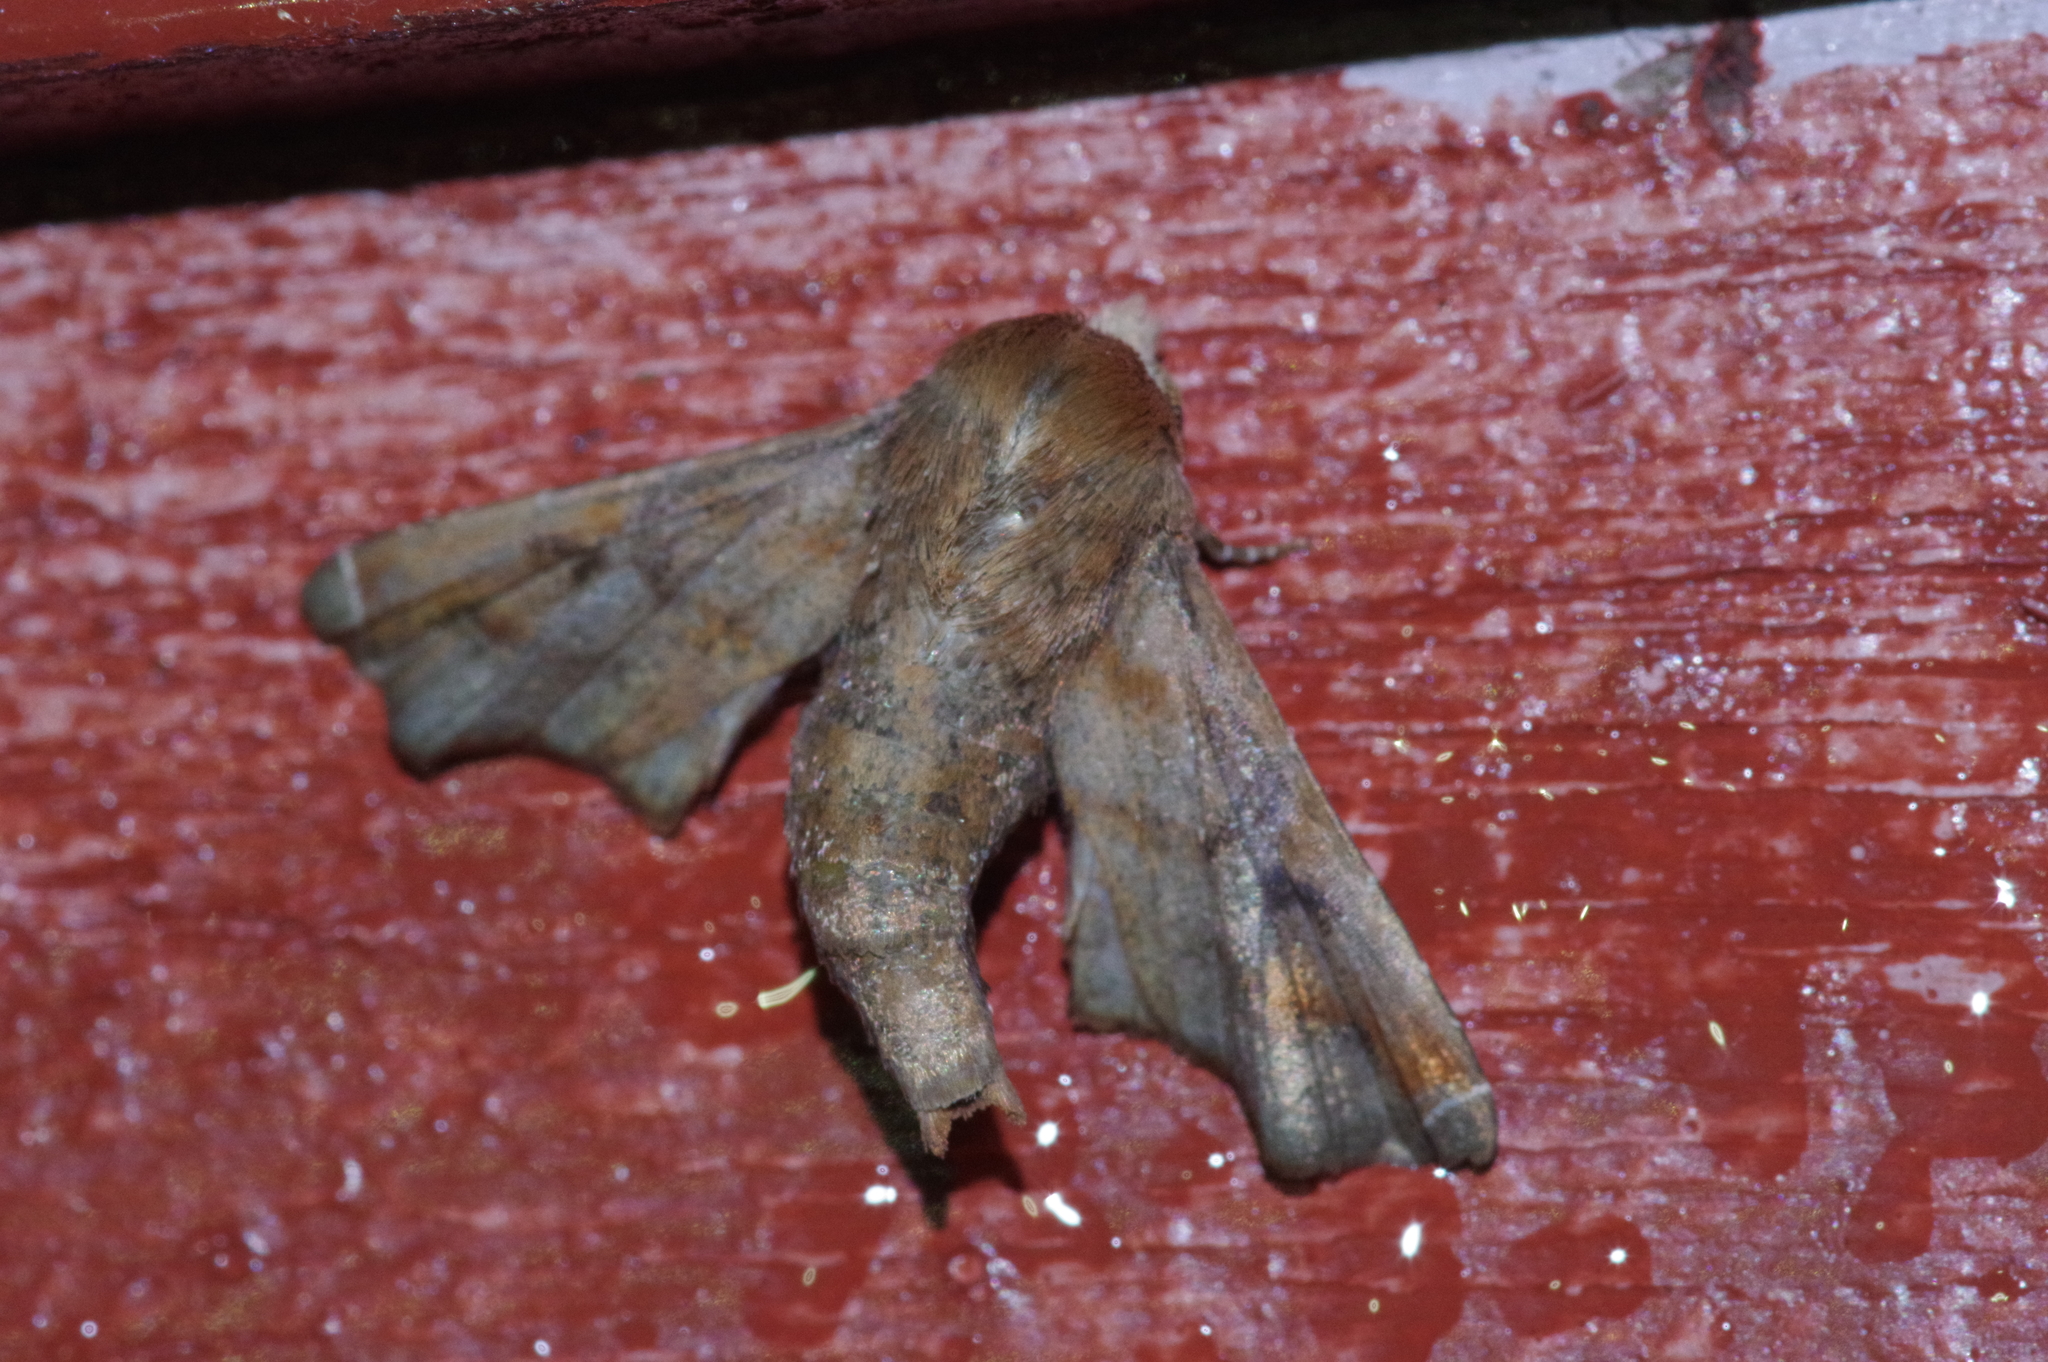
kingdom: Animalia
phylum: Arthropoda
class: Insecta
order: Lepidoptera
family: Euteliidae
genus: Penicillaria
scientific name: Penicillaria jocosatrix
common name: Mango shoot borer
